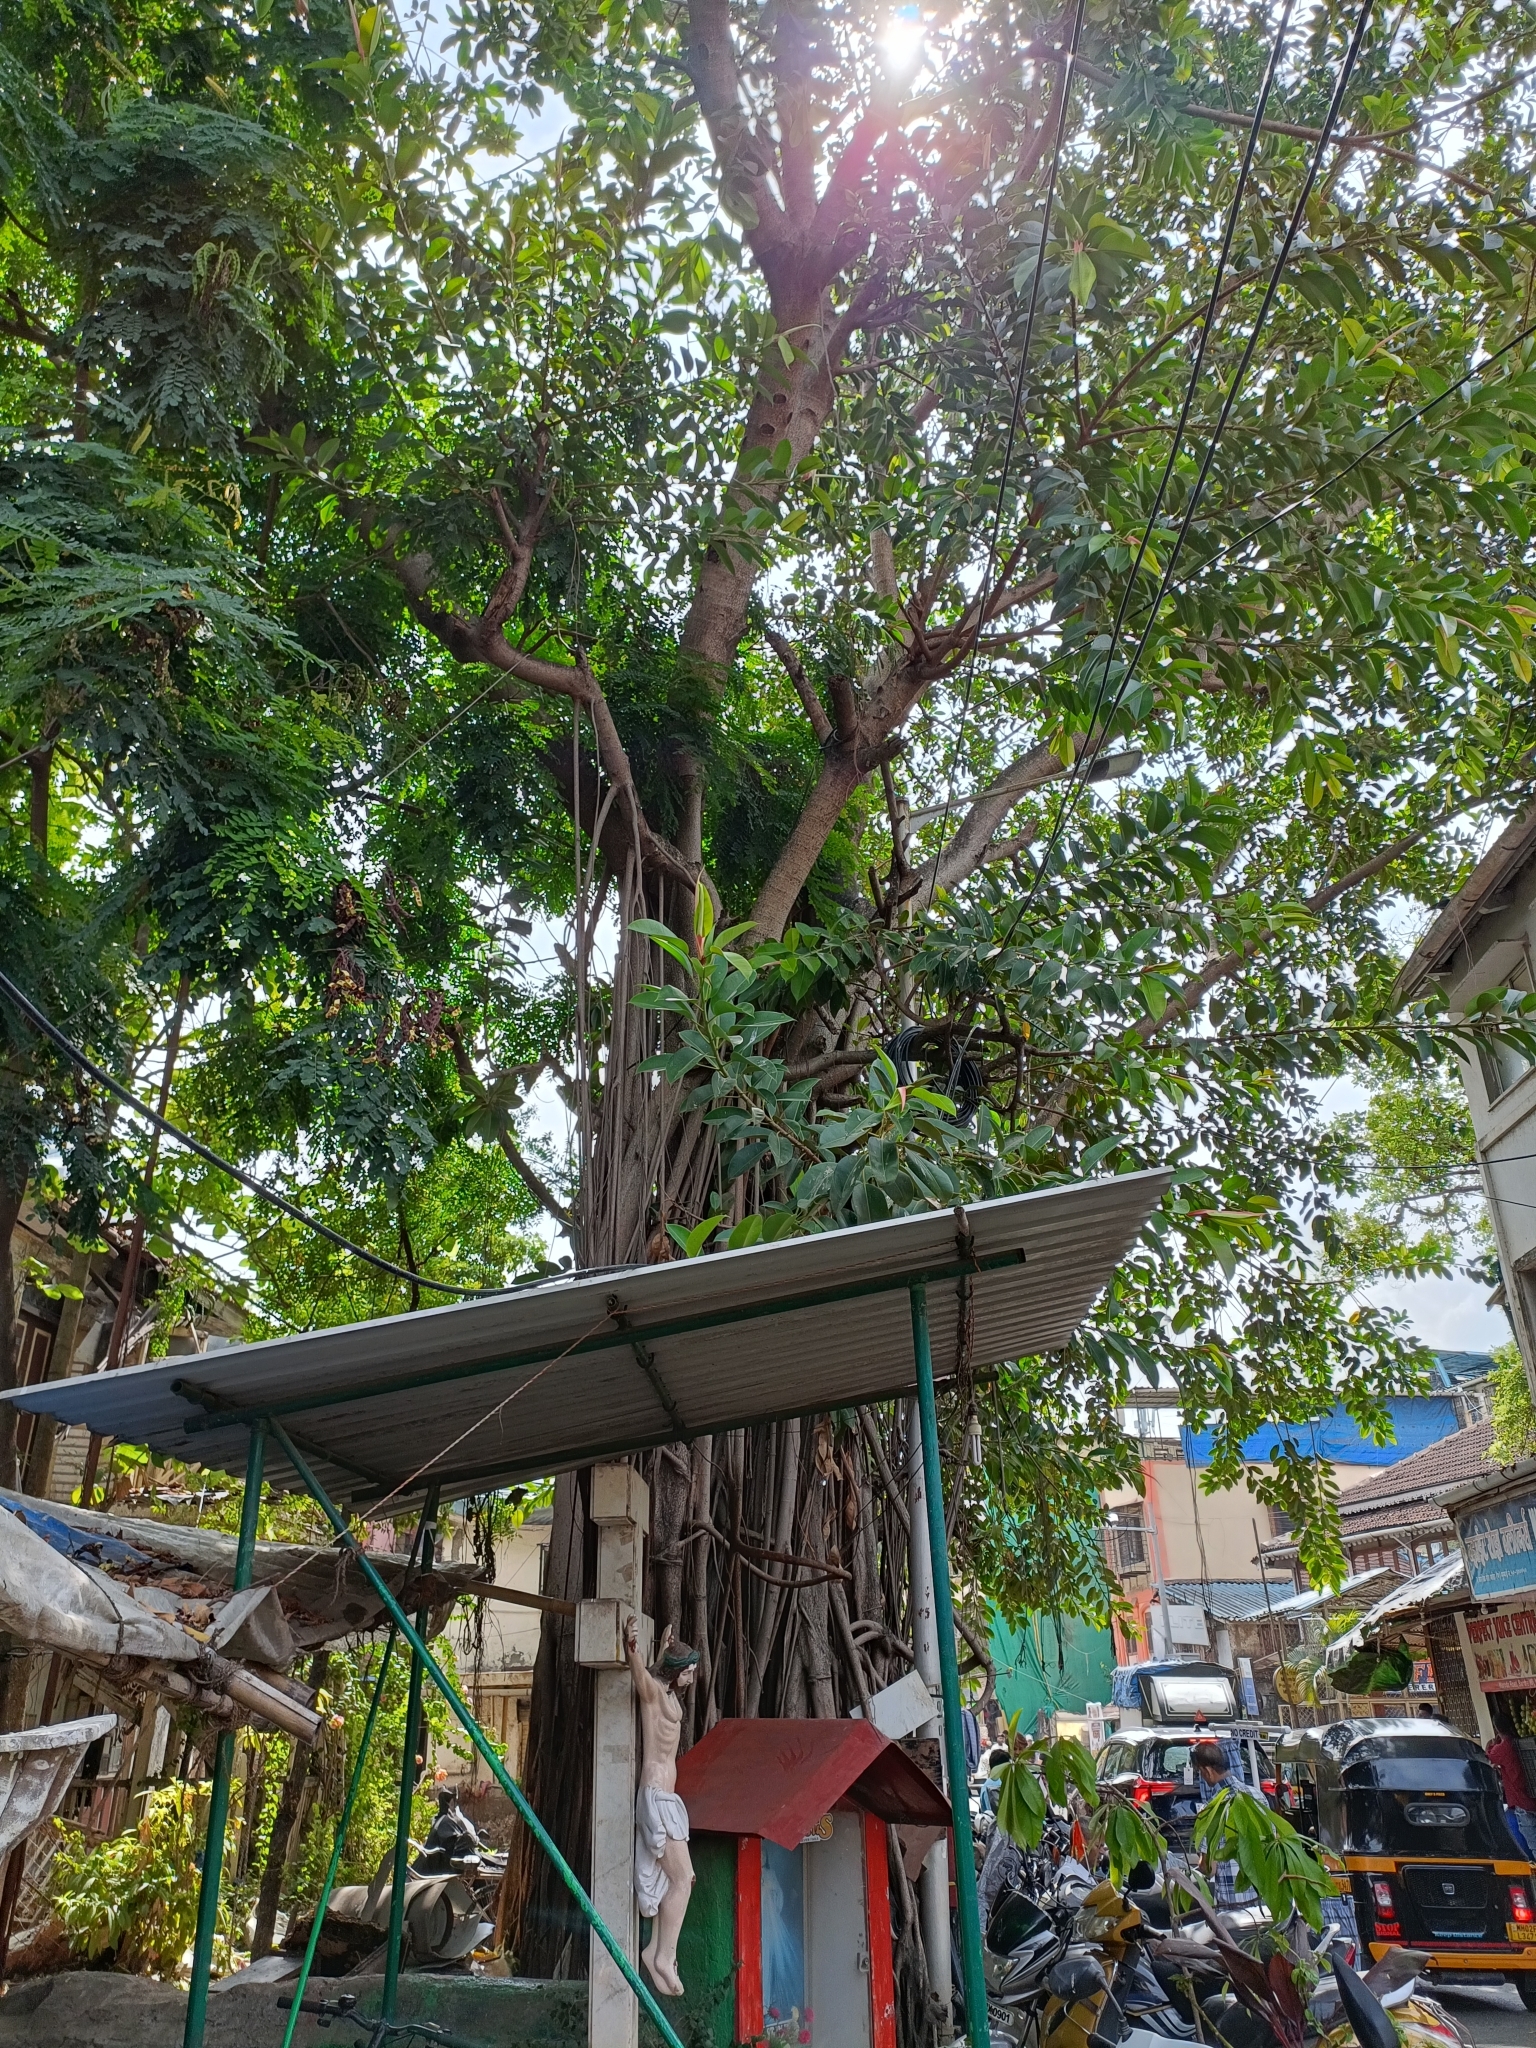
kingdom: Plantae
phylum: Tracheophyta
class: Magnoliopsida
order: Rosales
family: Moraceae
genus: Ficus
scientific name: Ficus elastica
